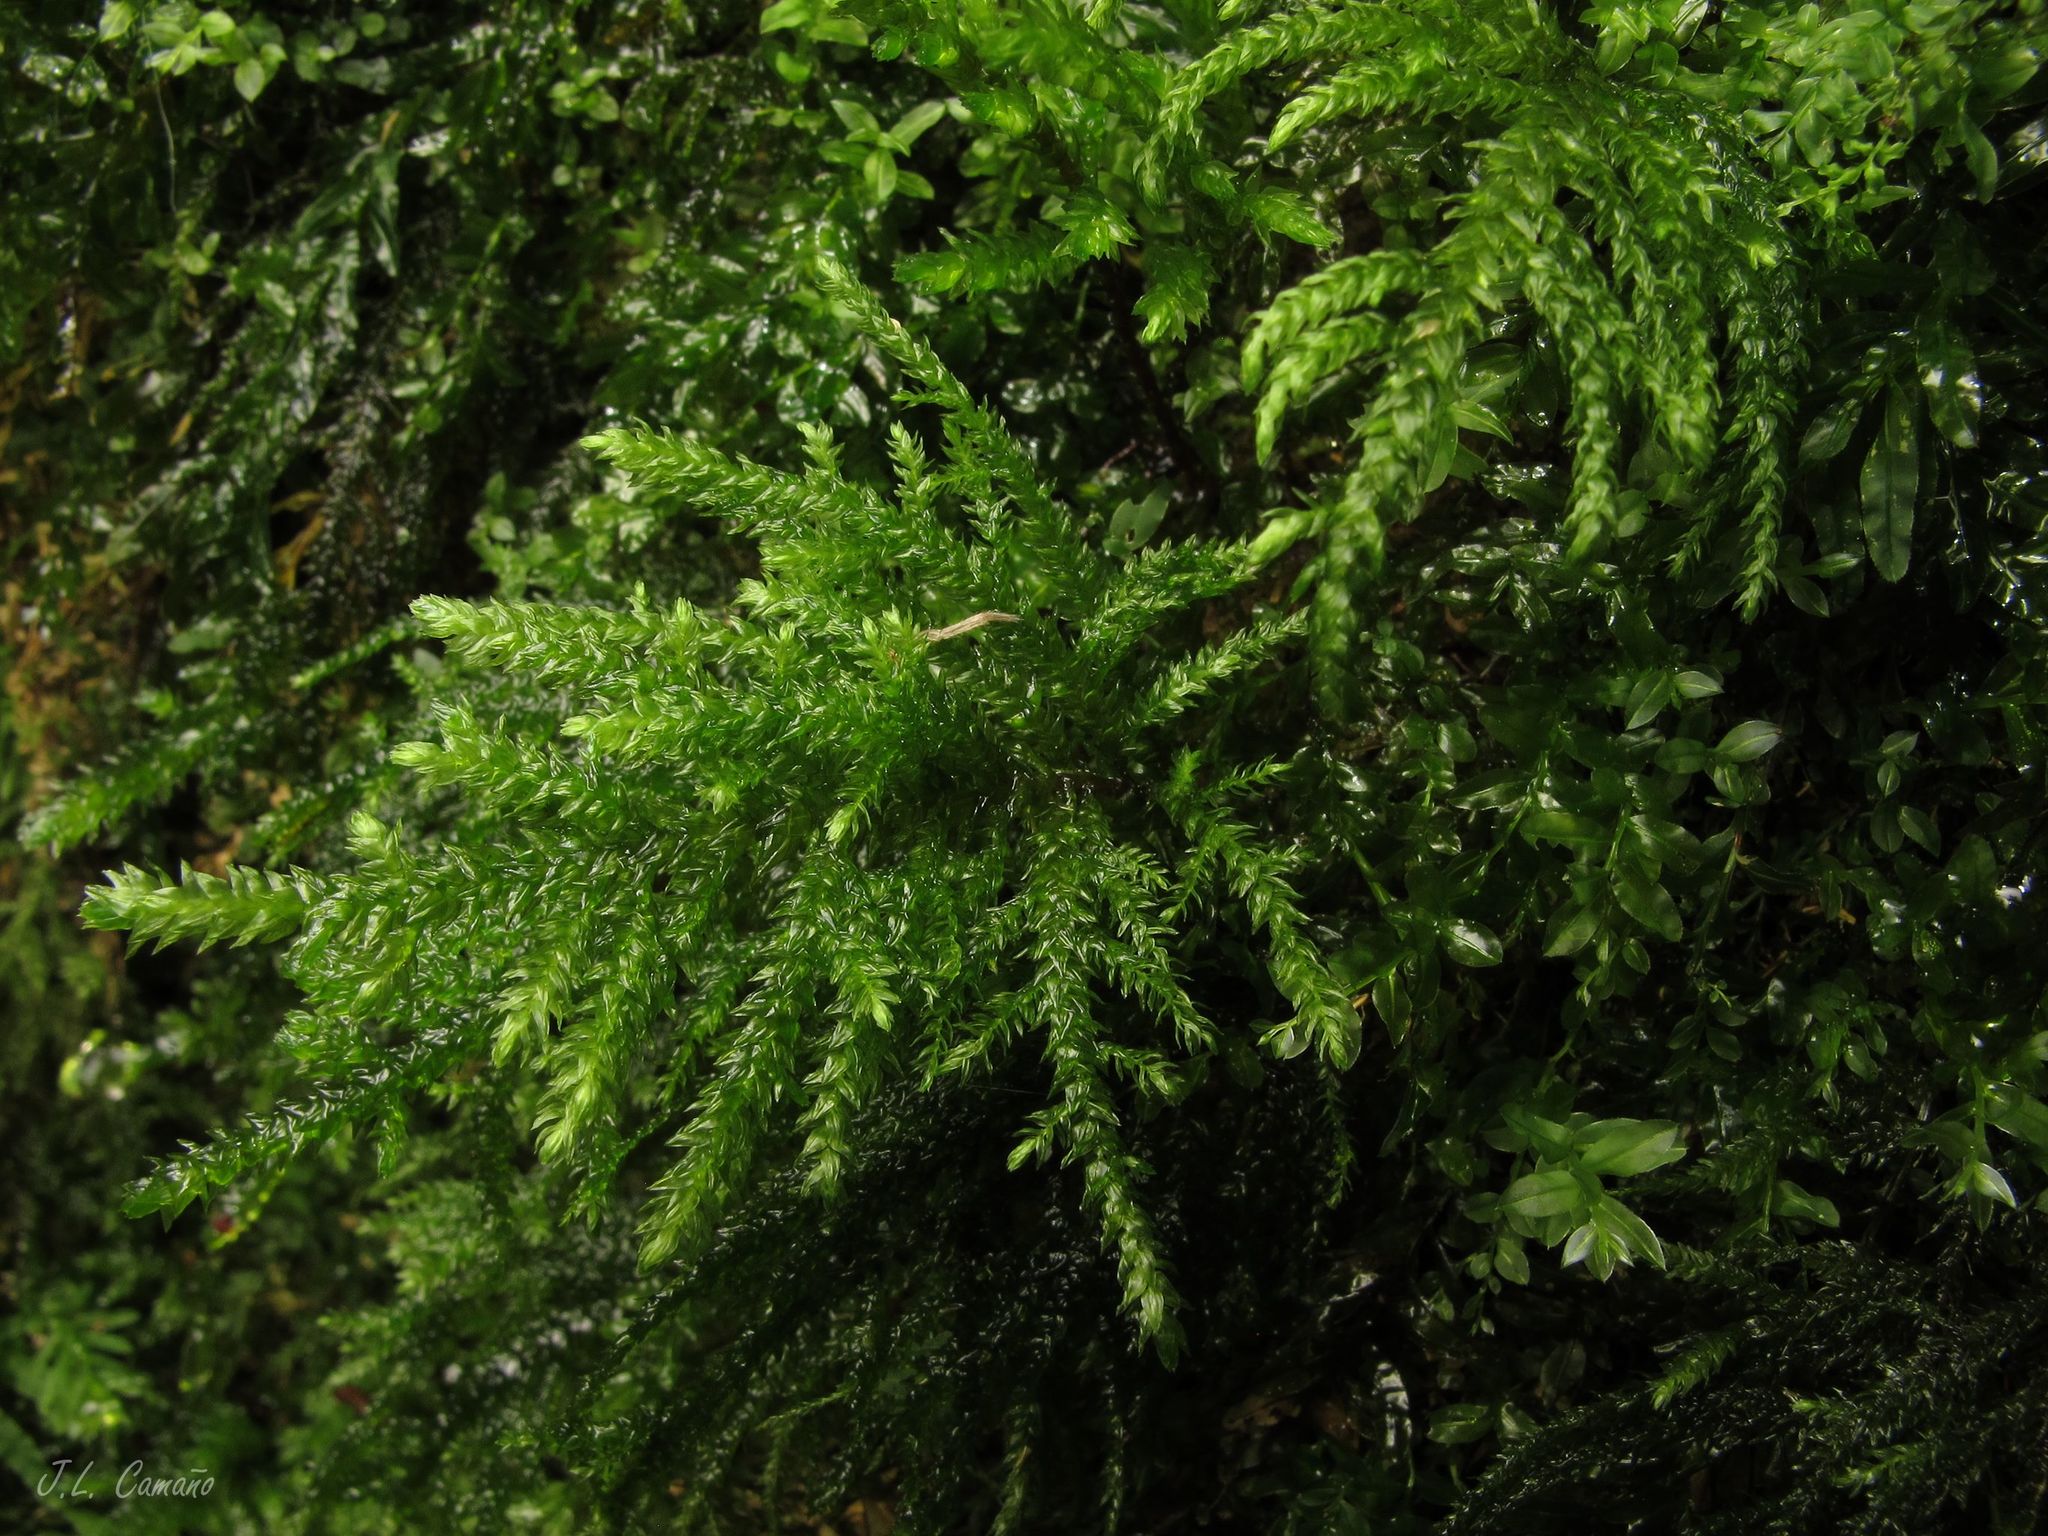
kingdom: Plantae
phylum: Bryophyta
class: Bryopsida
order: Hypnales
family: Neckeraceae
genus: Thamnobryum
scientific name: Thamnobryum alopecurum
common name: Fox-tail feather-moss
